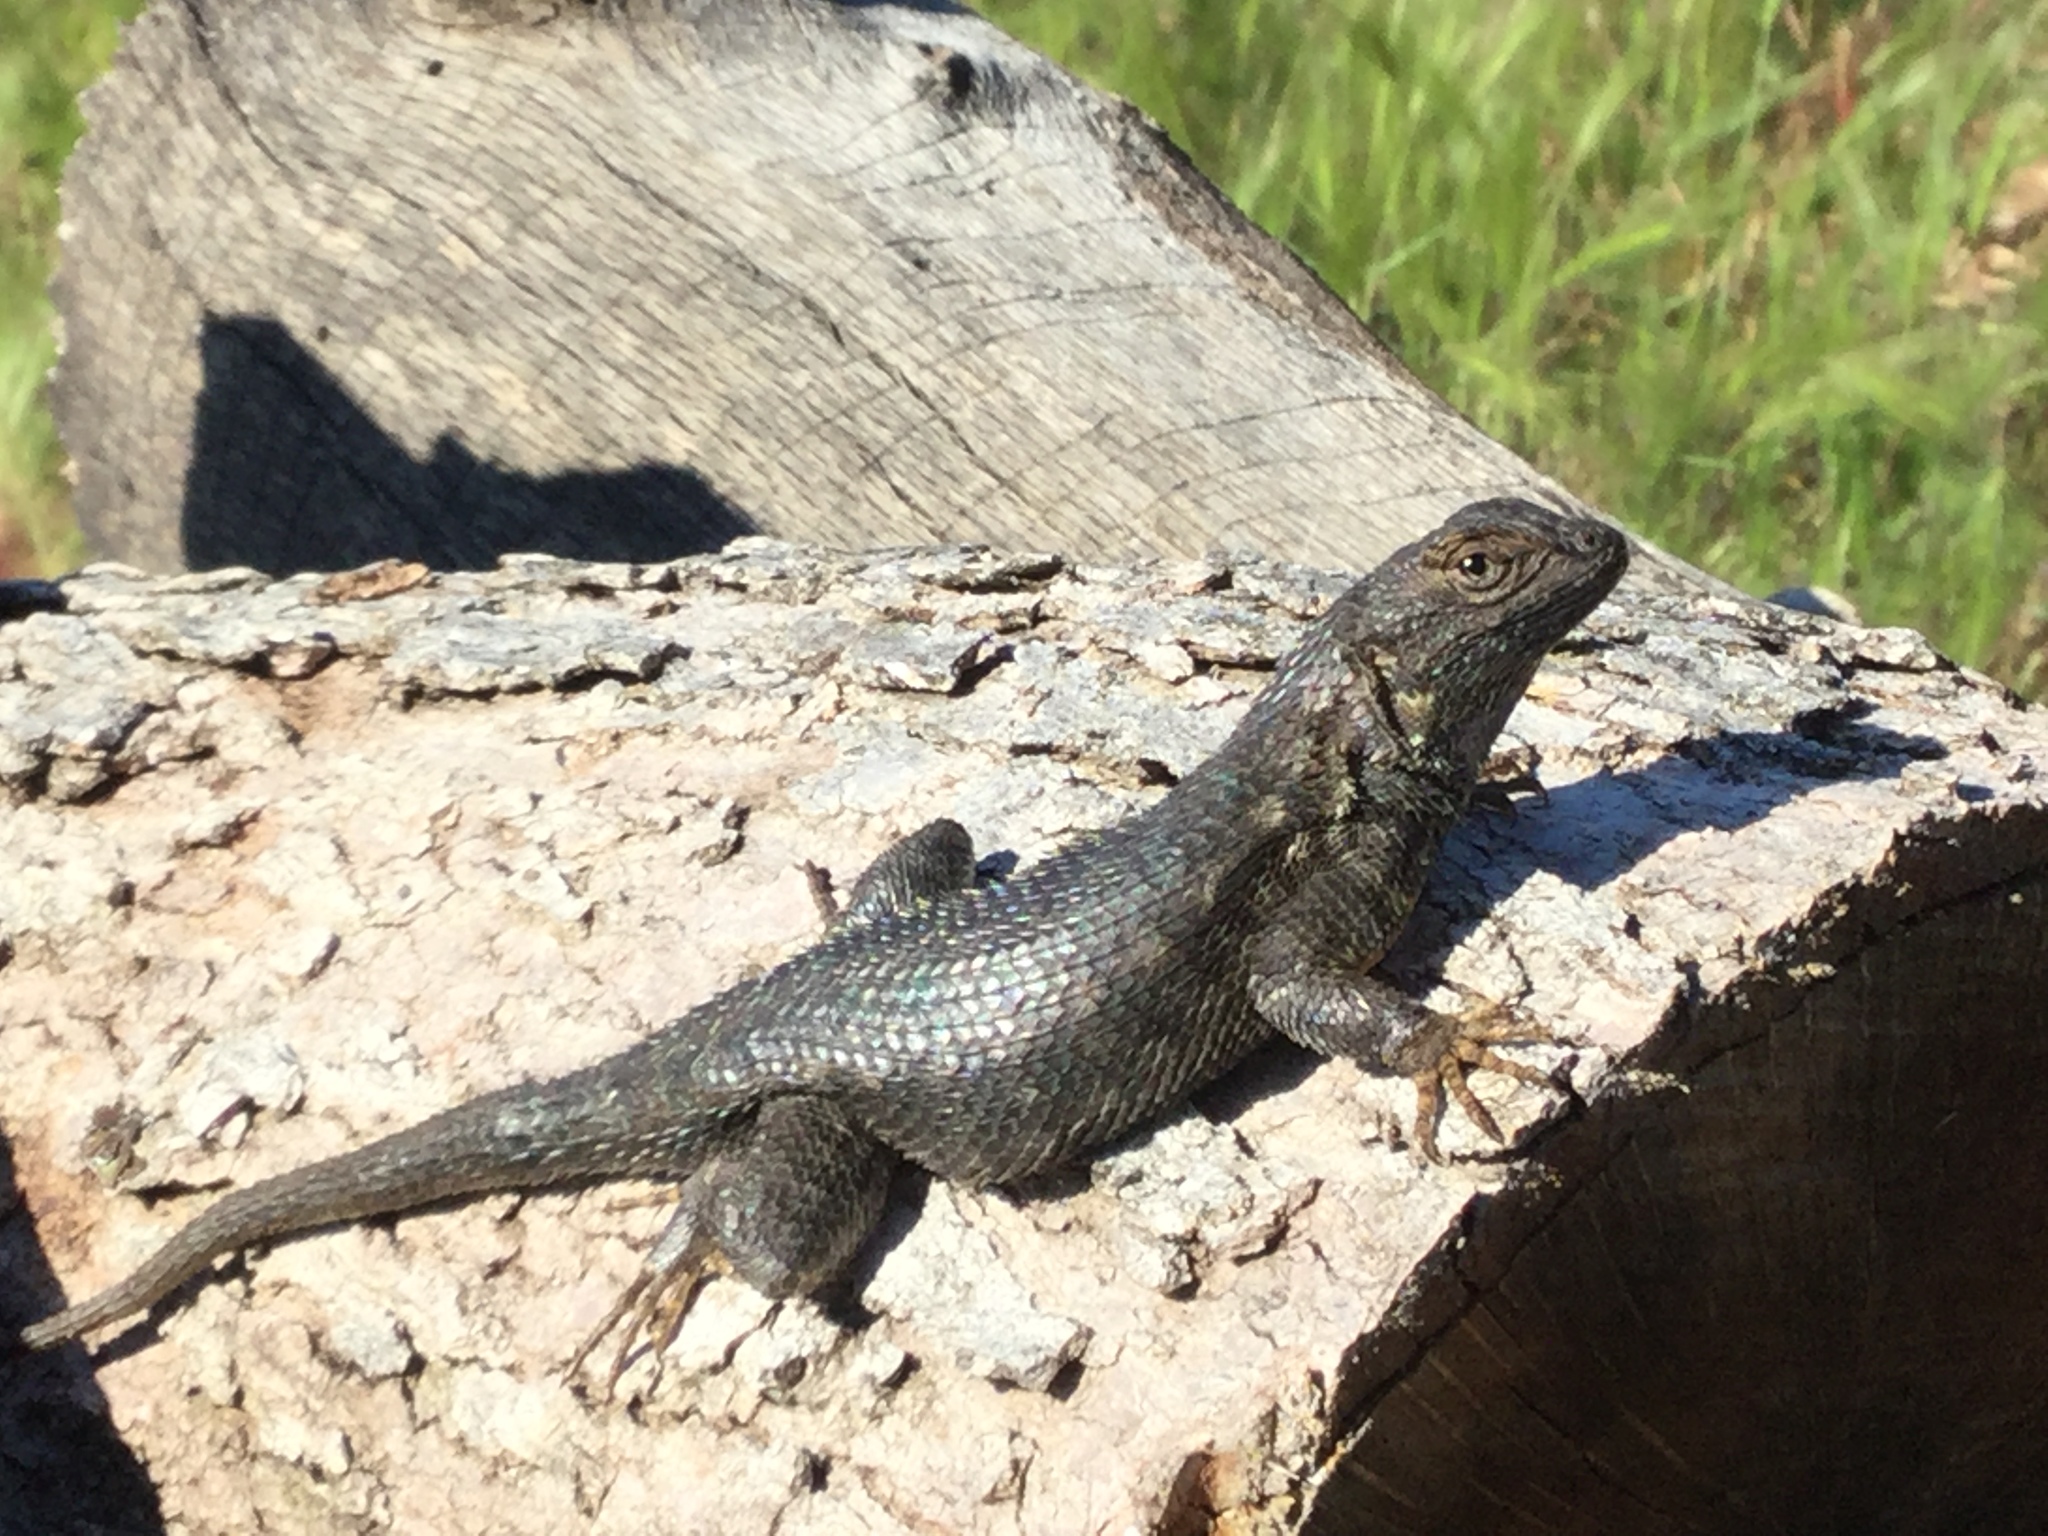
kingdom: Animalia
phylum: Chordata
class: Squamata
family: Phrynosomatidae
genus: Sceloporus
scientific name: Sceloporus occidentalis
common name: Western fence lizard
